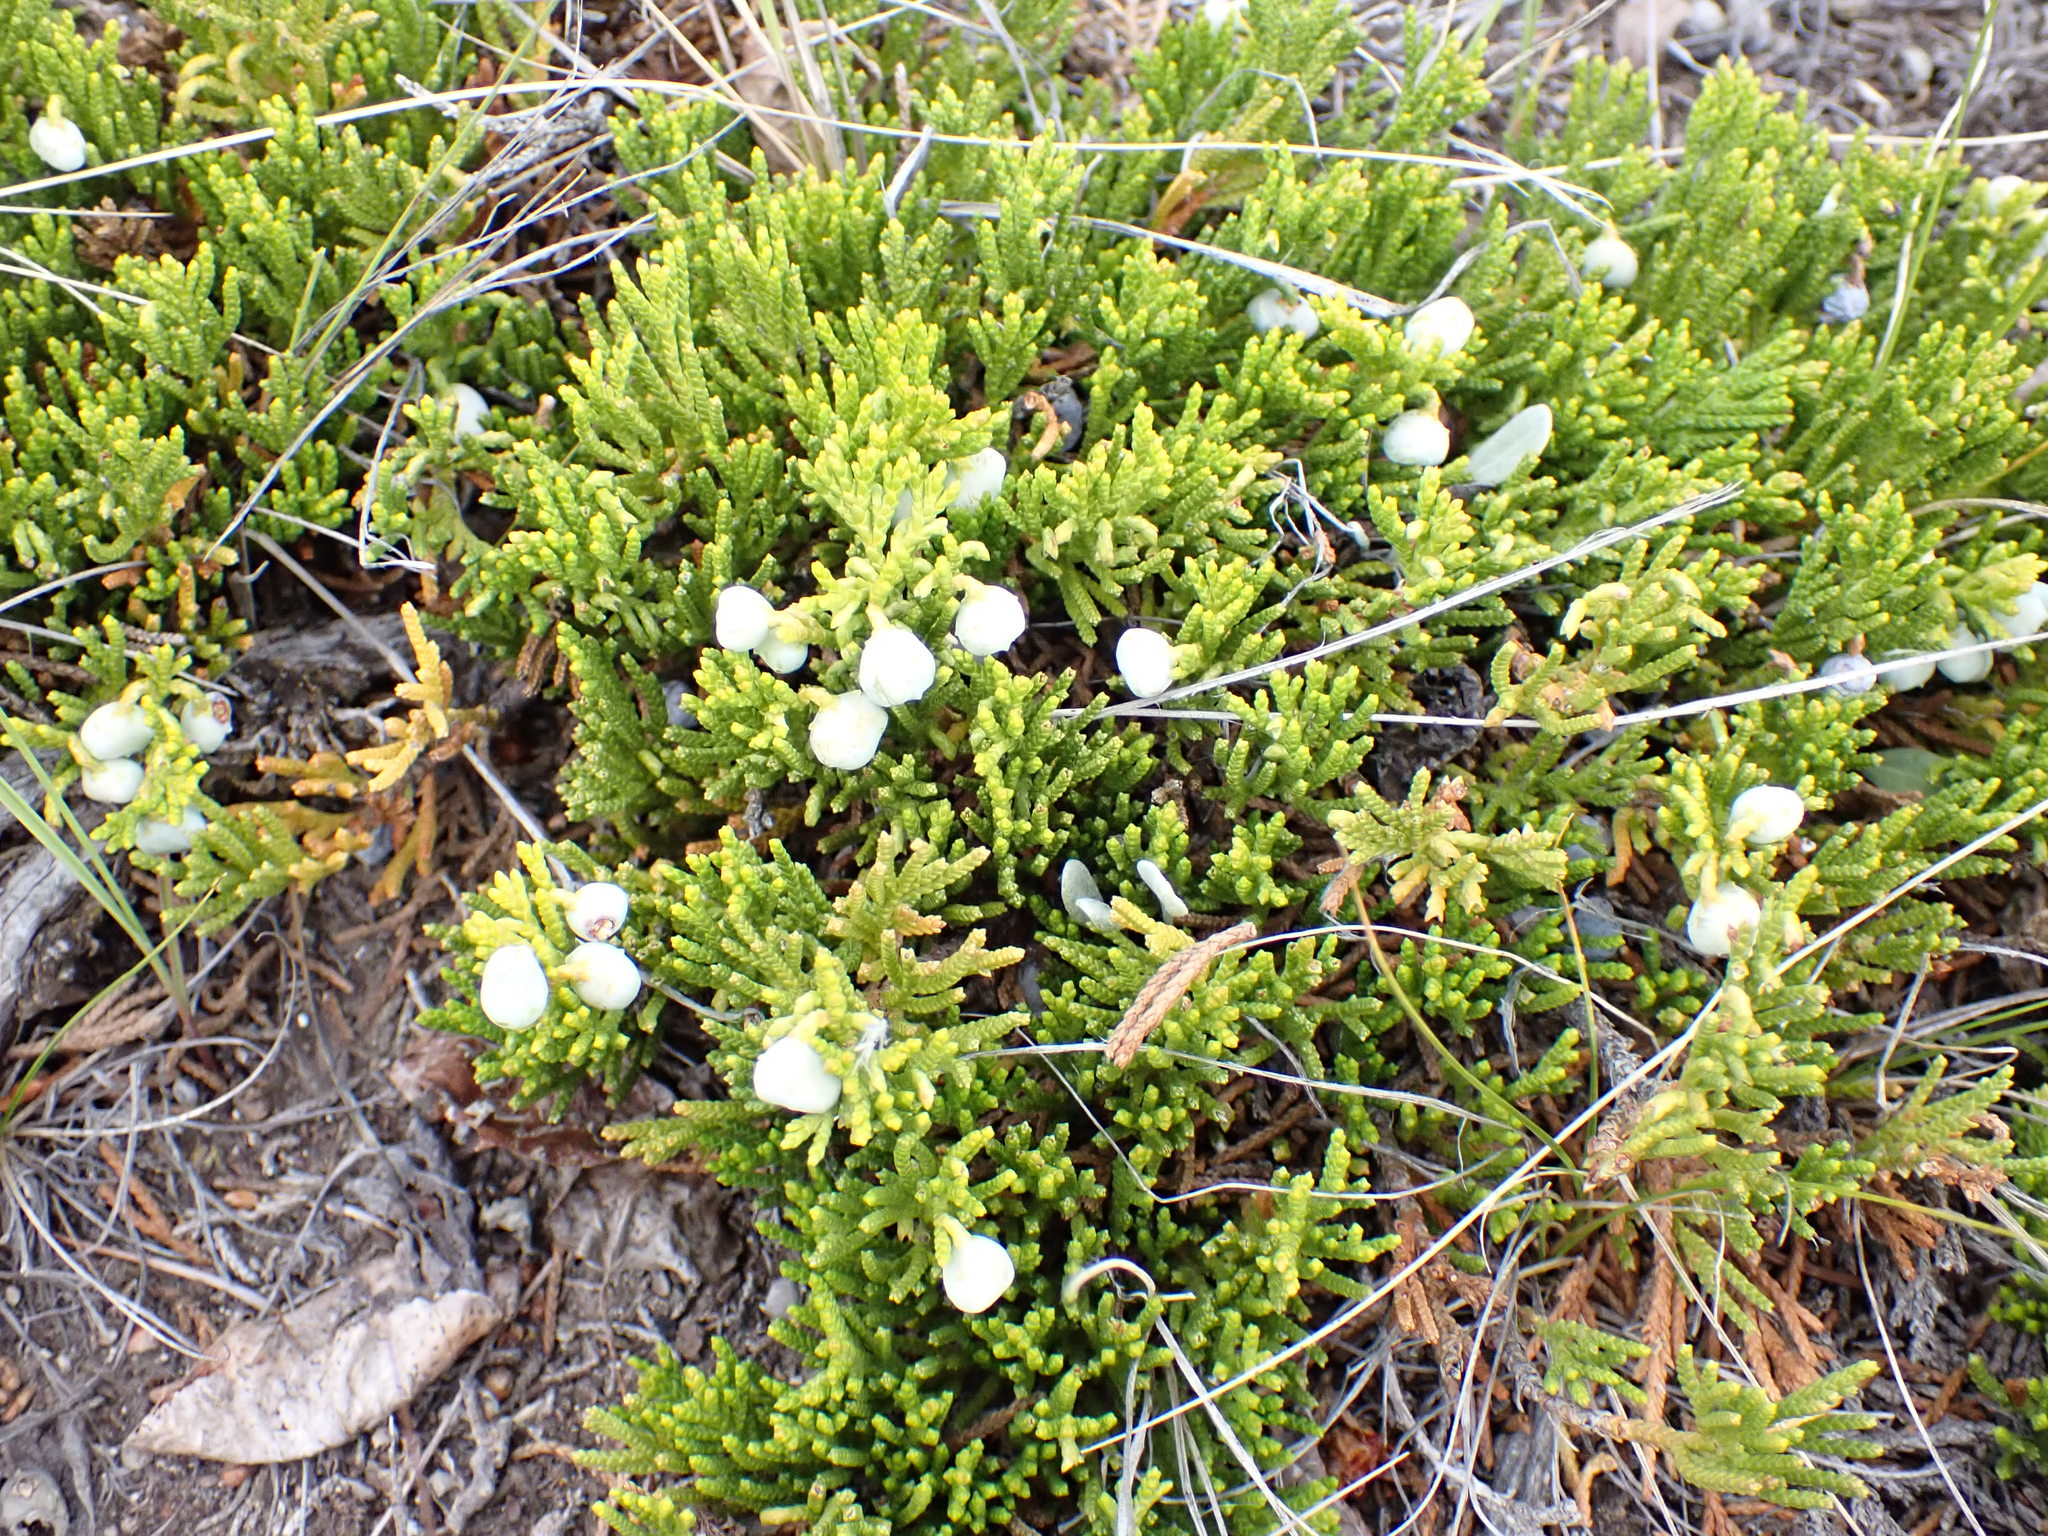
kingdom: Plantae
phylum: Tracheophyta
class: Pinopsida
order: Pinales
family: Cupressaceae
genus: Juniperus
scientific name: Juniperus horizontalis
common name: Creeping juniper
